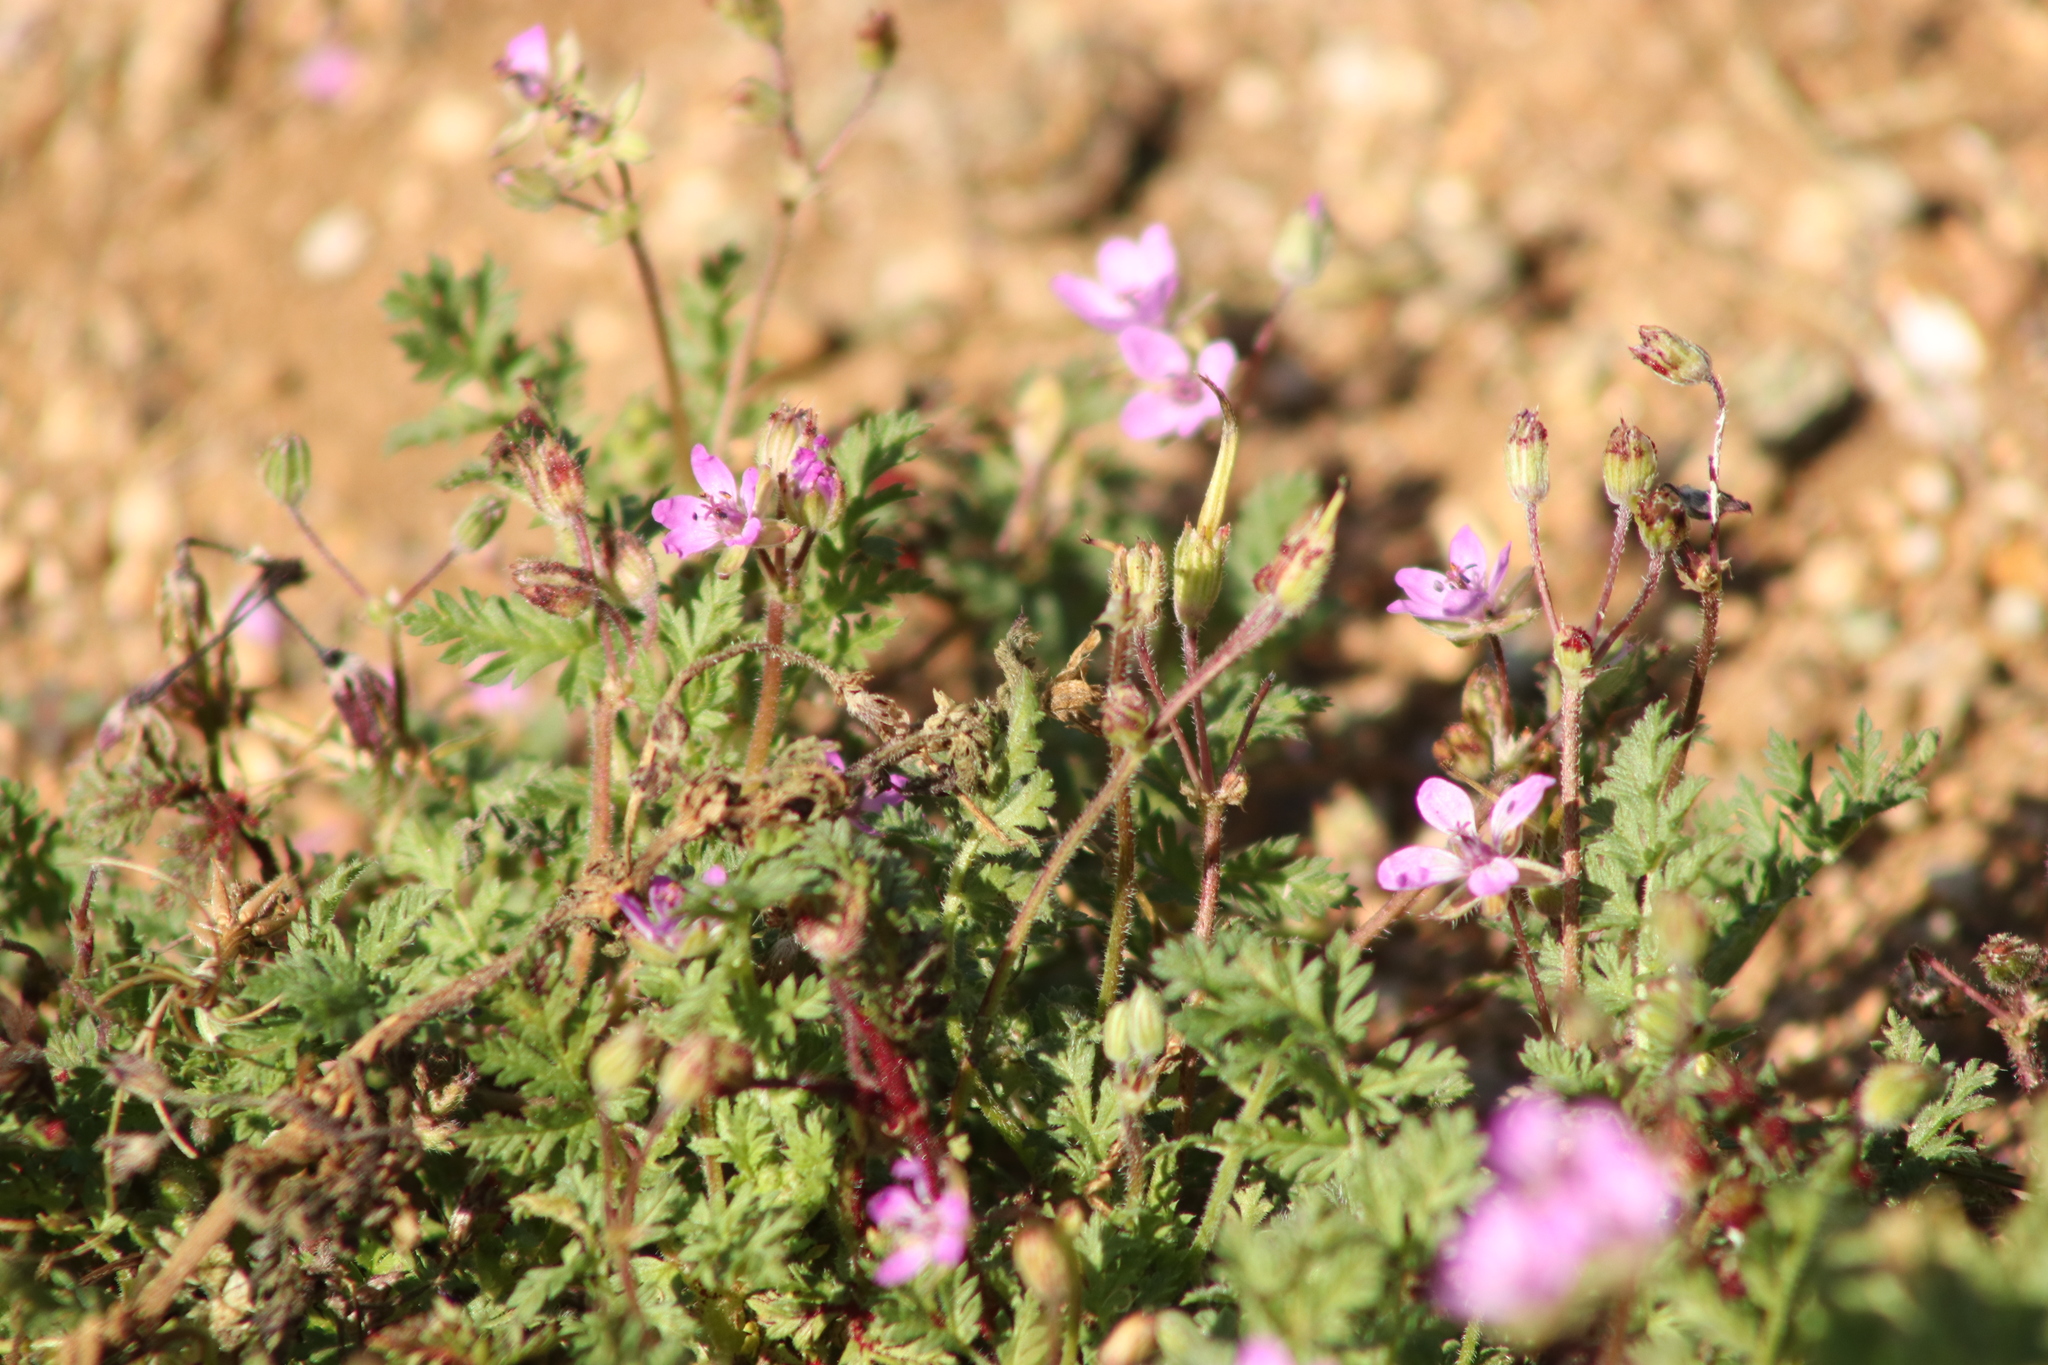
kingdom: Plantae
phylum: Tracheophyta
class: Magnoliopsida
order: Geraniales
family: Geraniaceae
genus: Erodium
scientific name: Erodium cicutarium
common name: Common stork's-bill
